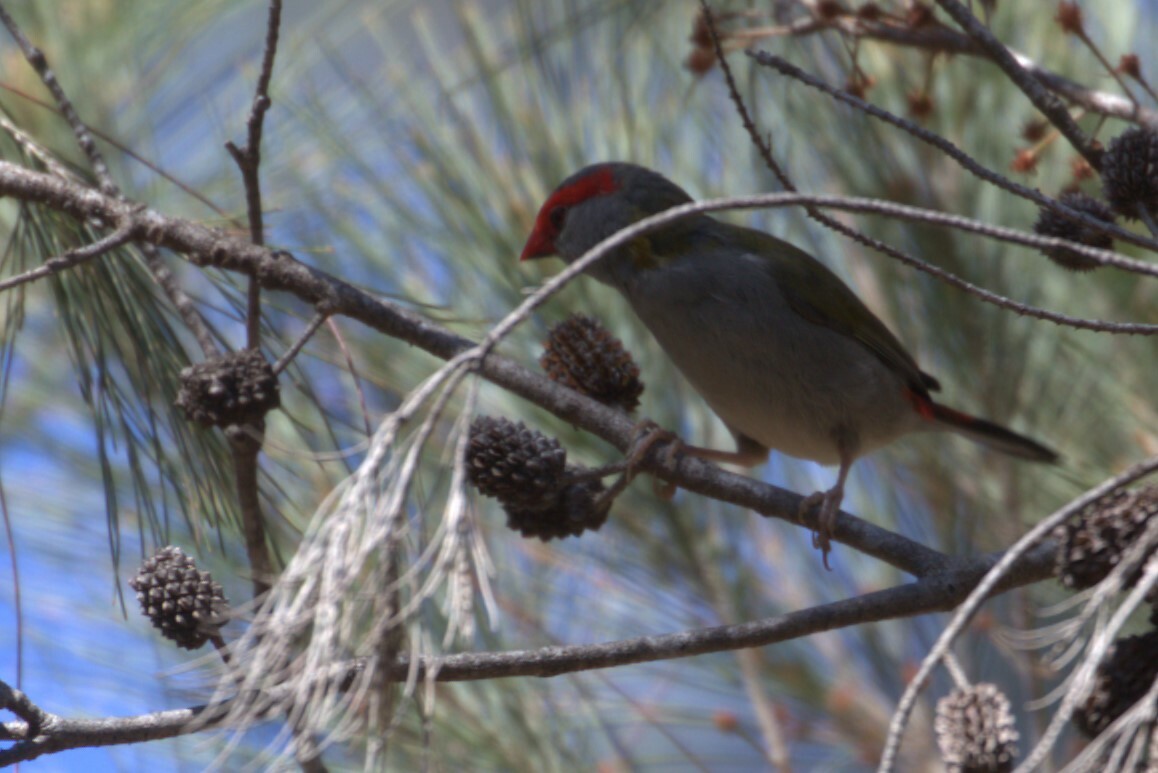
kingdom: Animalia
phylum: Chordata
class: Aves
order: Passeriformes
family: Estrildidae
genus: Neochmia
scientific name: Neochmia temporalis
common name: Red-browed finch
